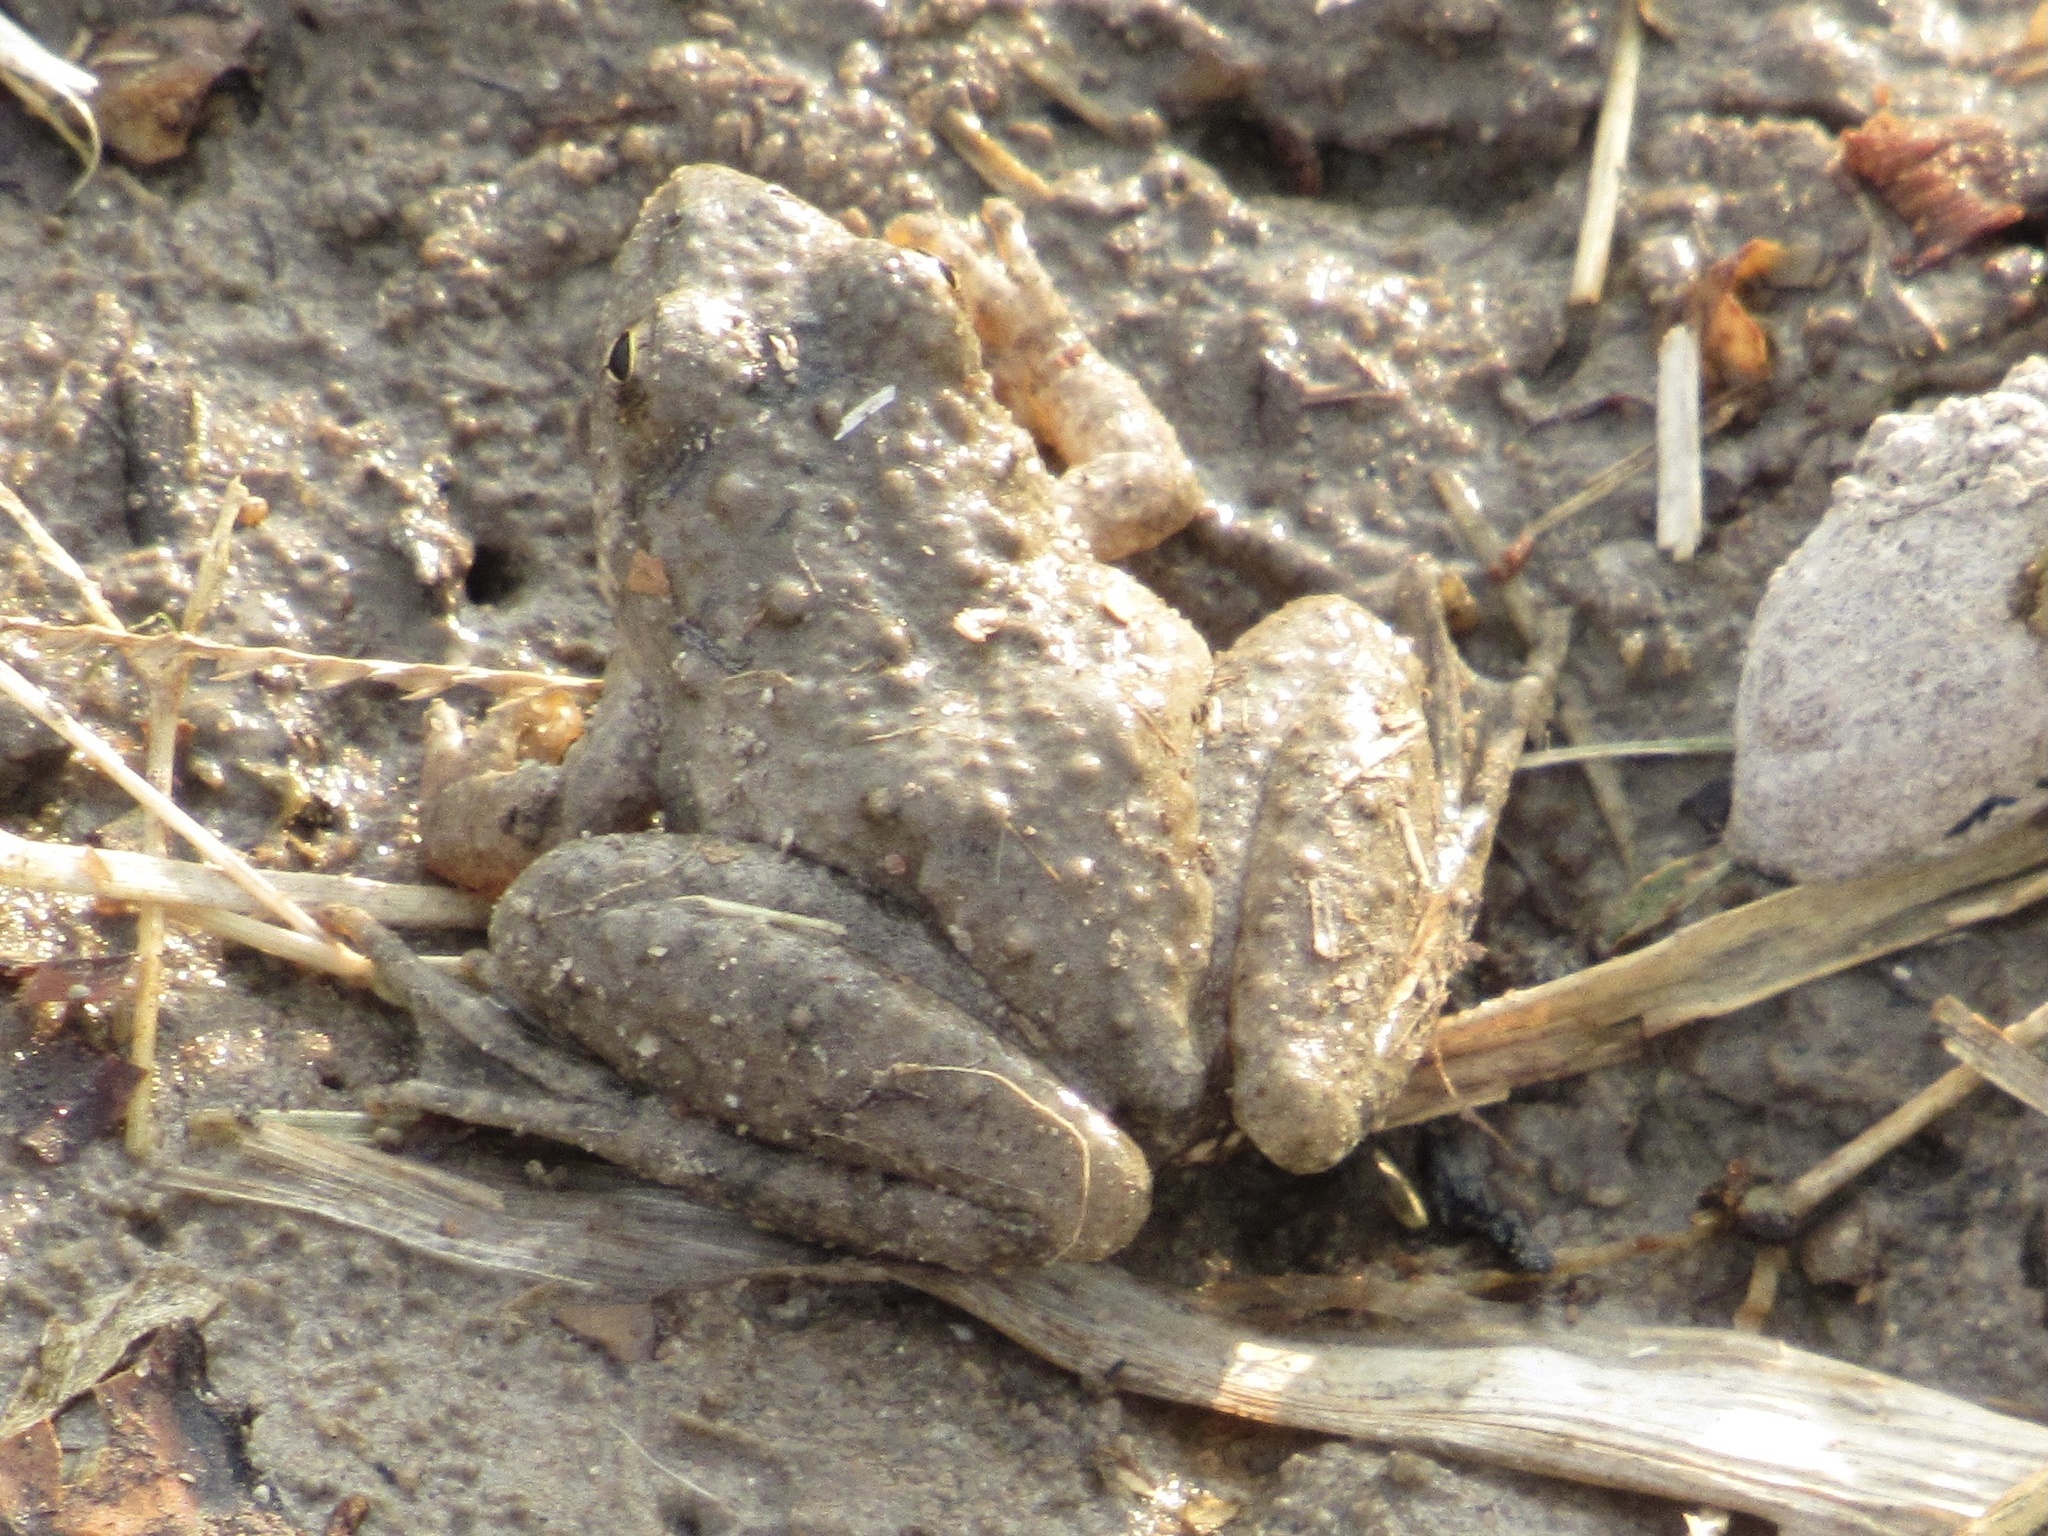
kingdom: Animalia
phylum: Chordata
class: Amphibia
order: Anura
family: Hylidae
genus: Acris
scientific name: Acris blanchardi
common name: Blanchard's cricket frog
